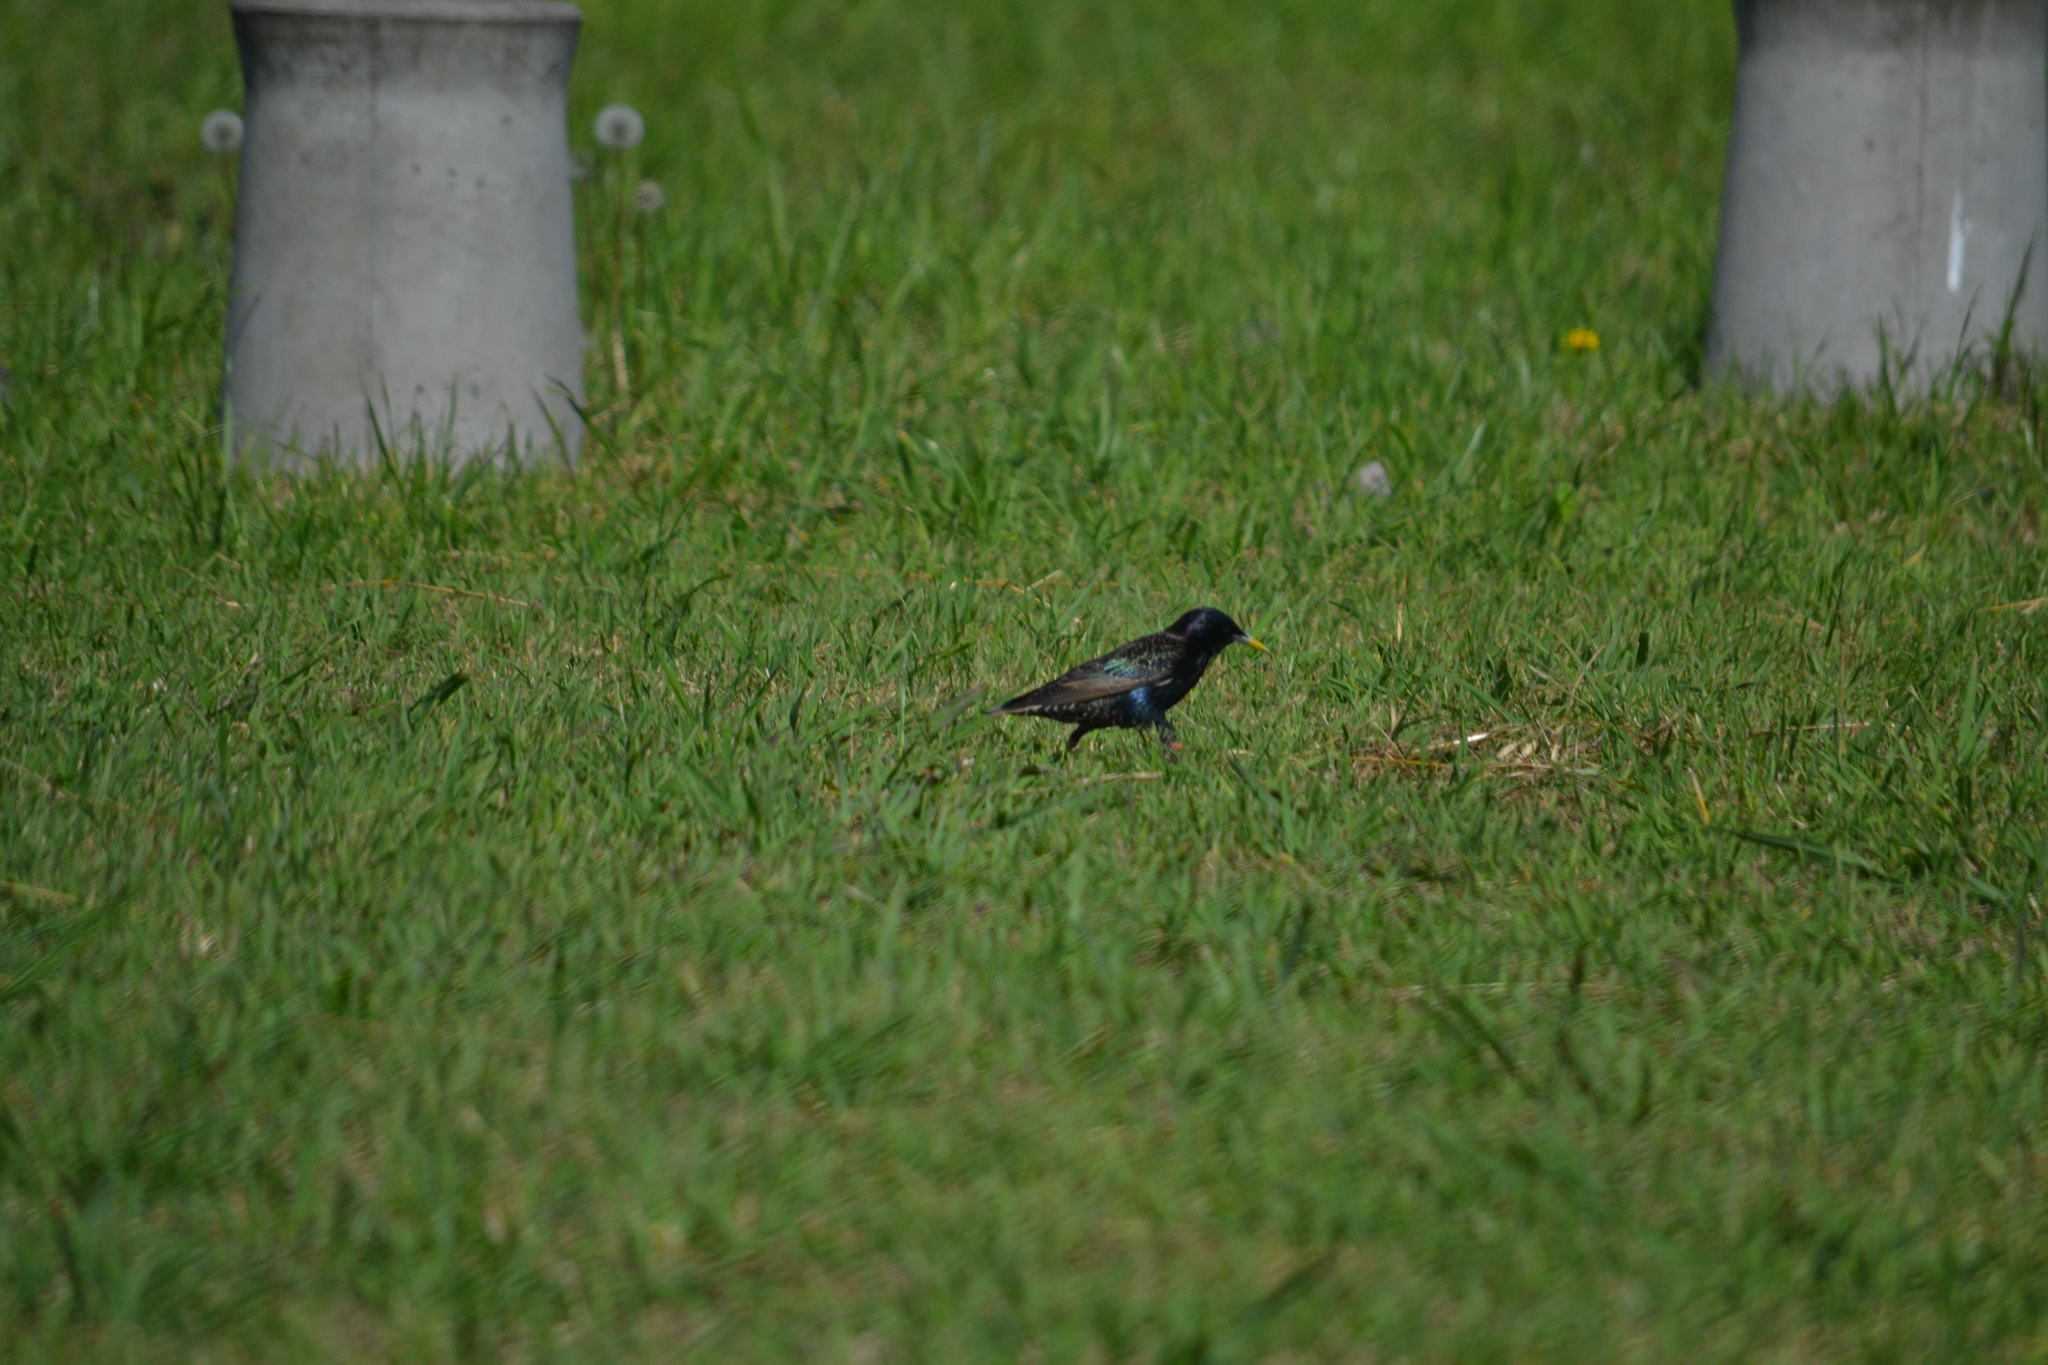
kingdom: Animalia
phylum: Chordata
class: Aves
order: Passeriformes
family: Sturnidae
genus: Sturnus
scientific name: Sturnus vulgaris
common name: Common starling
